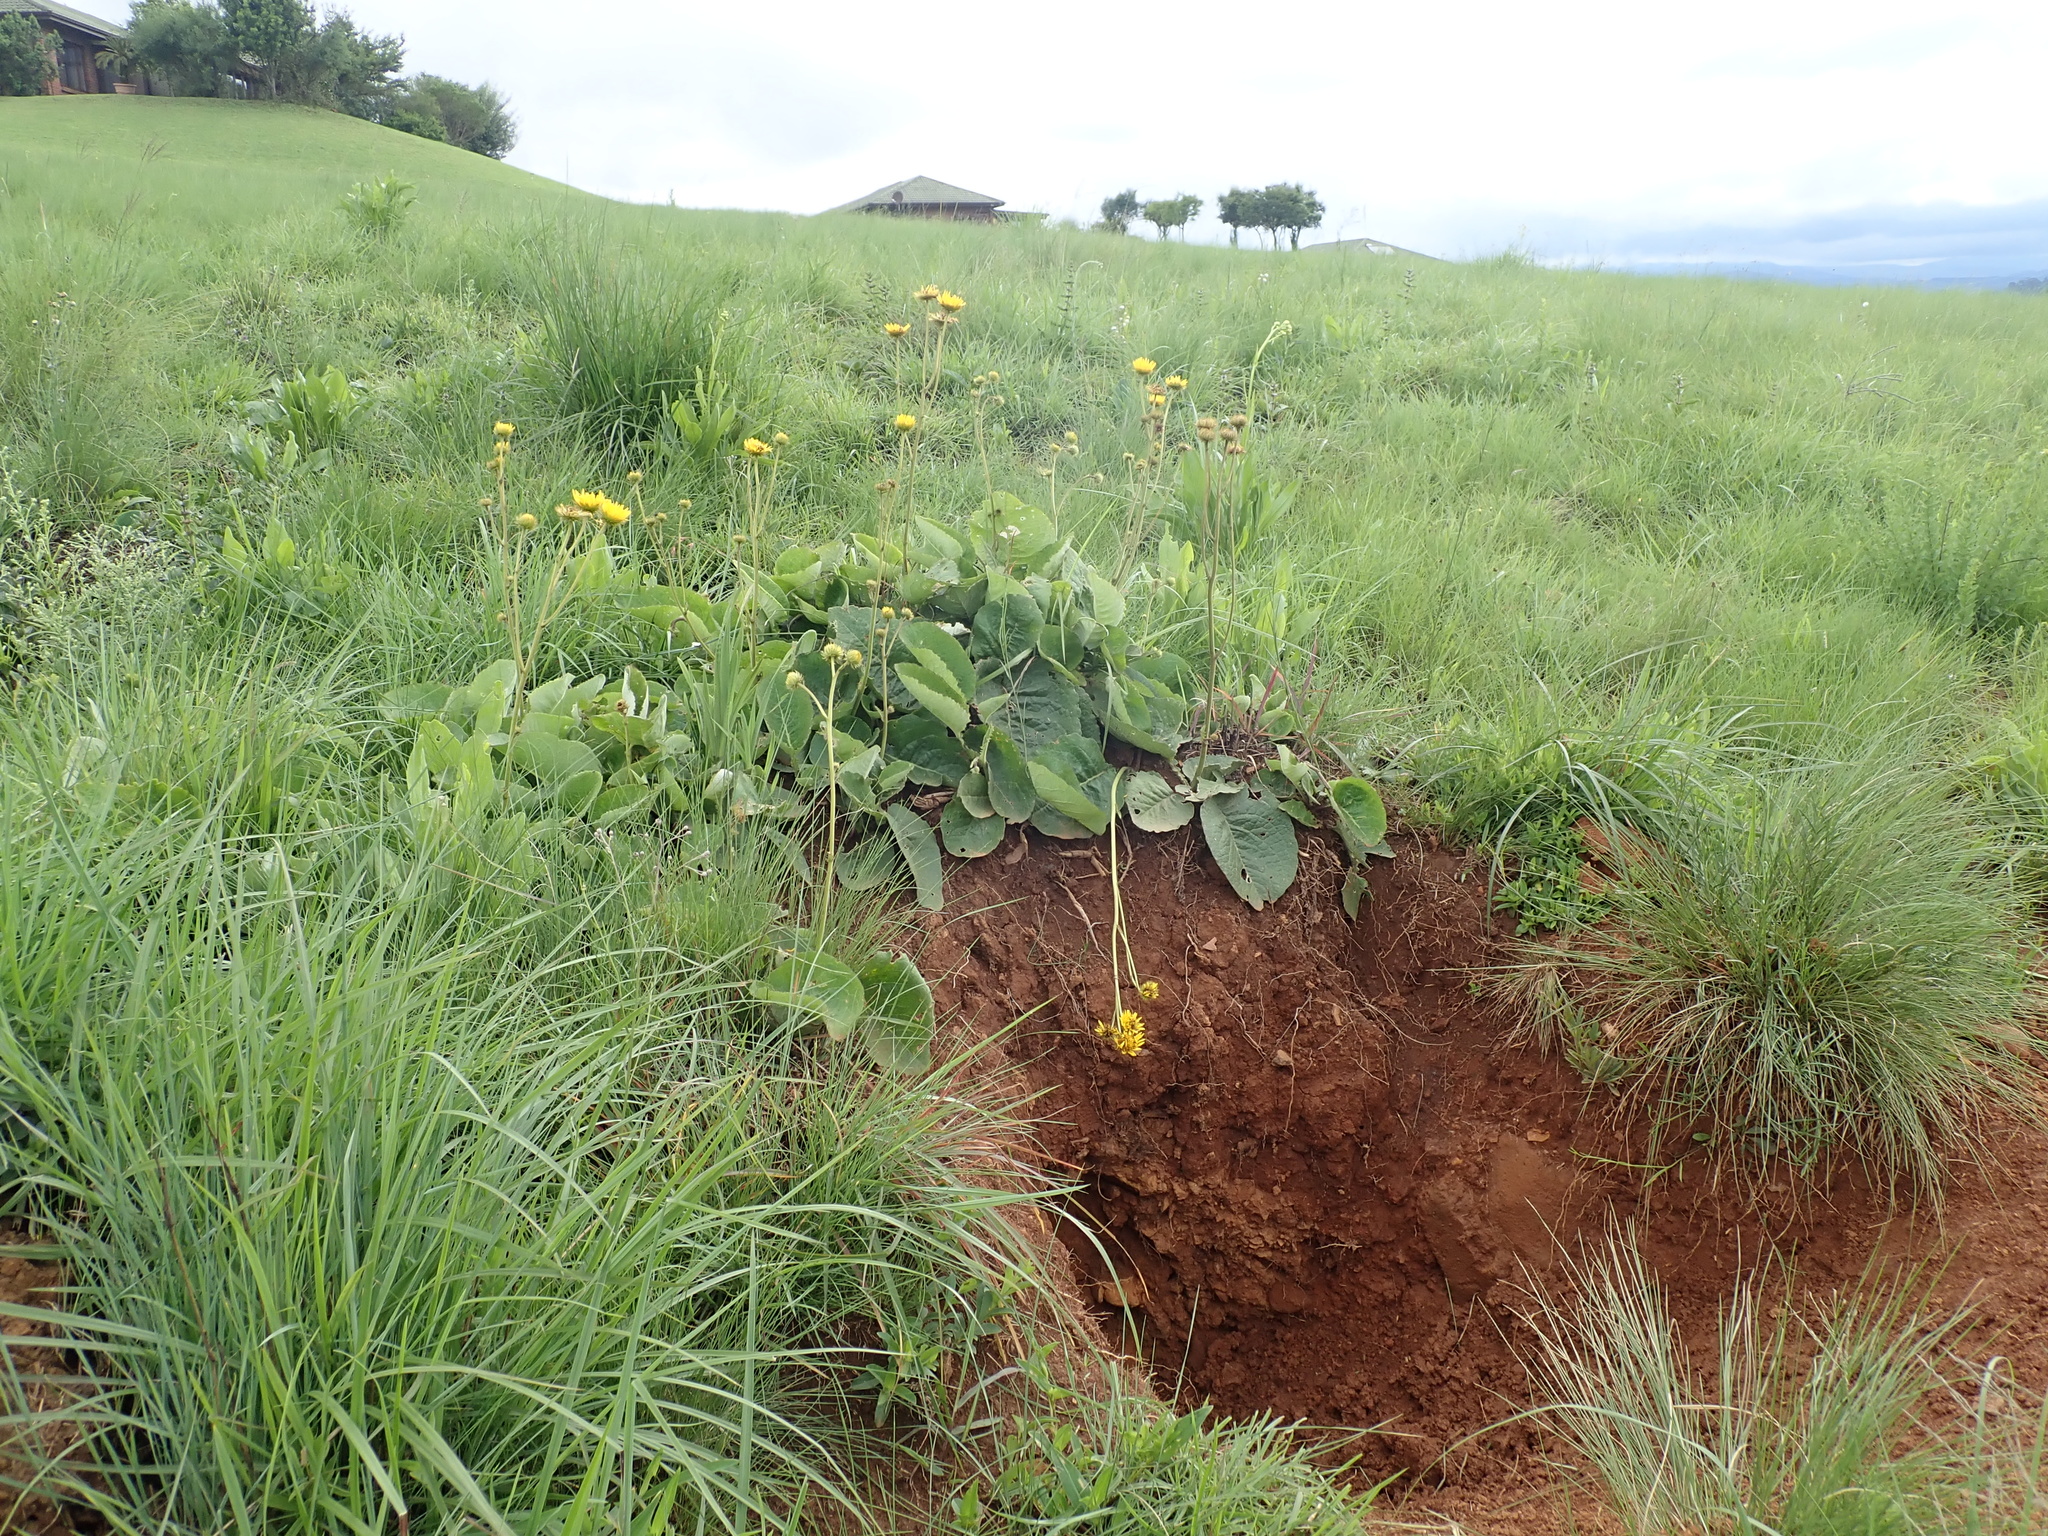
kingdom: Plantae
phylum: Tracheophyta
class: Magnoliopsida
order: Asterales
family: Asteraceae
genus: Berkheya
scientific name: Berkheya setifera
